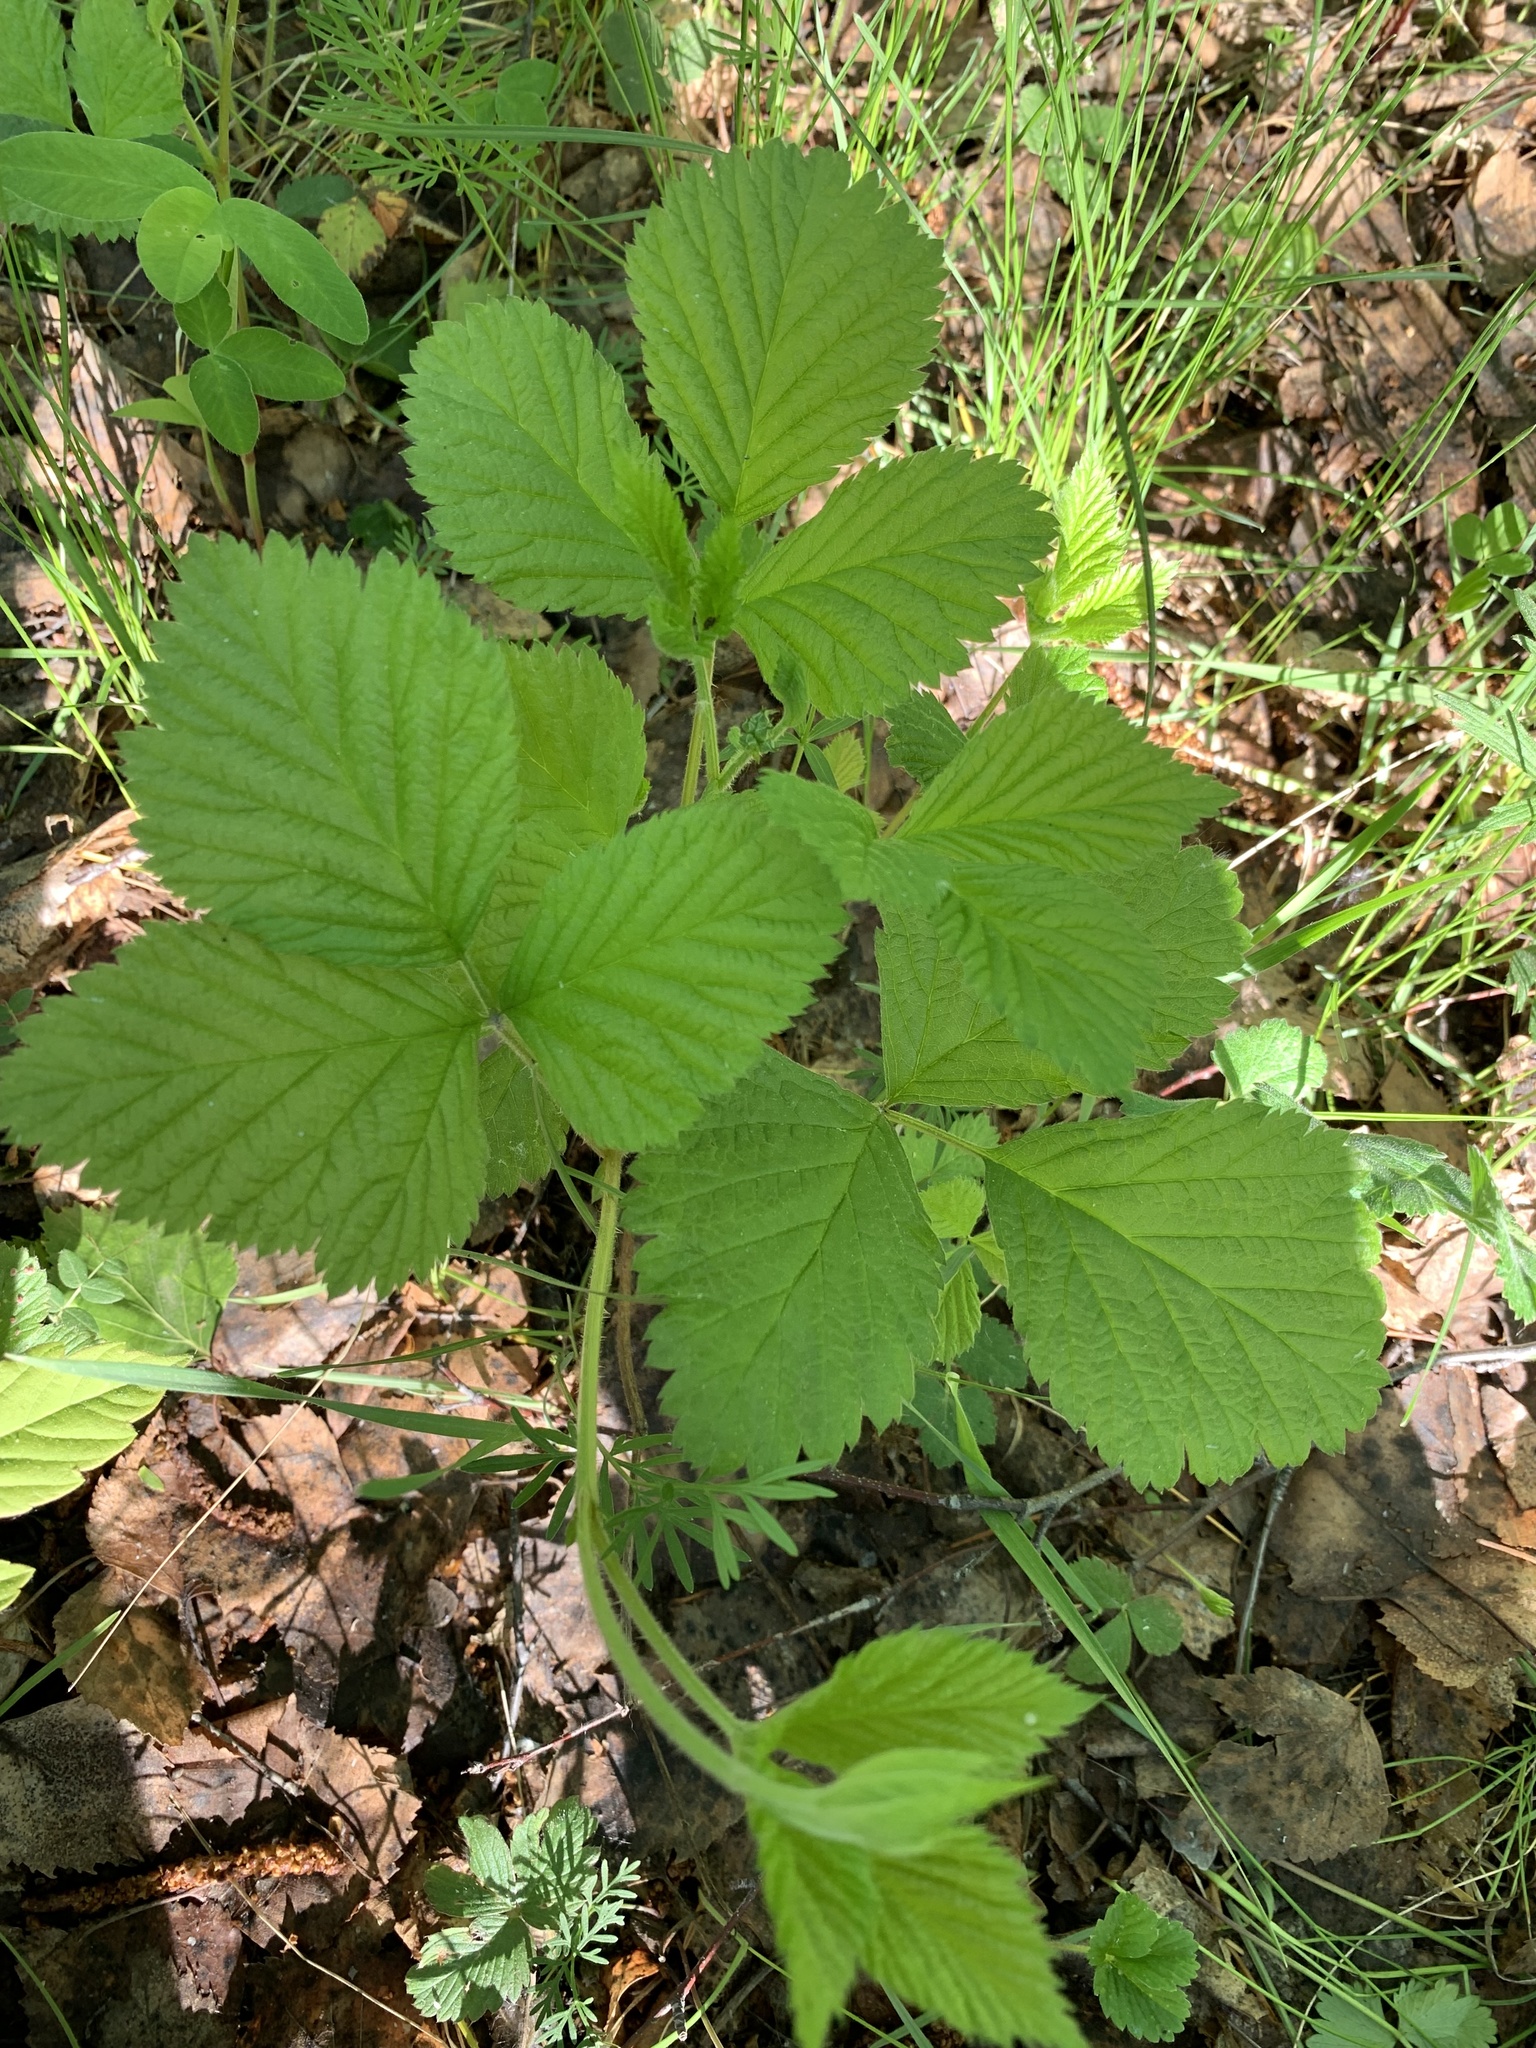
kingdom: Plantae
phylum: Tracheophyta
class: Magnoliopsida
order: Rosales
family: Rosaceae
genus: Rubus
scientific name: Rubus saxatilis
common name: Stone bramble
